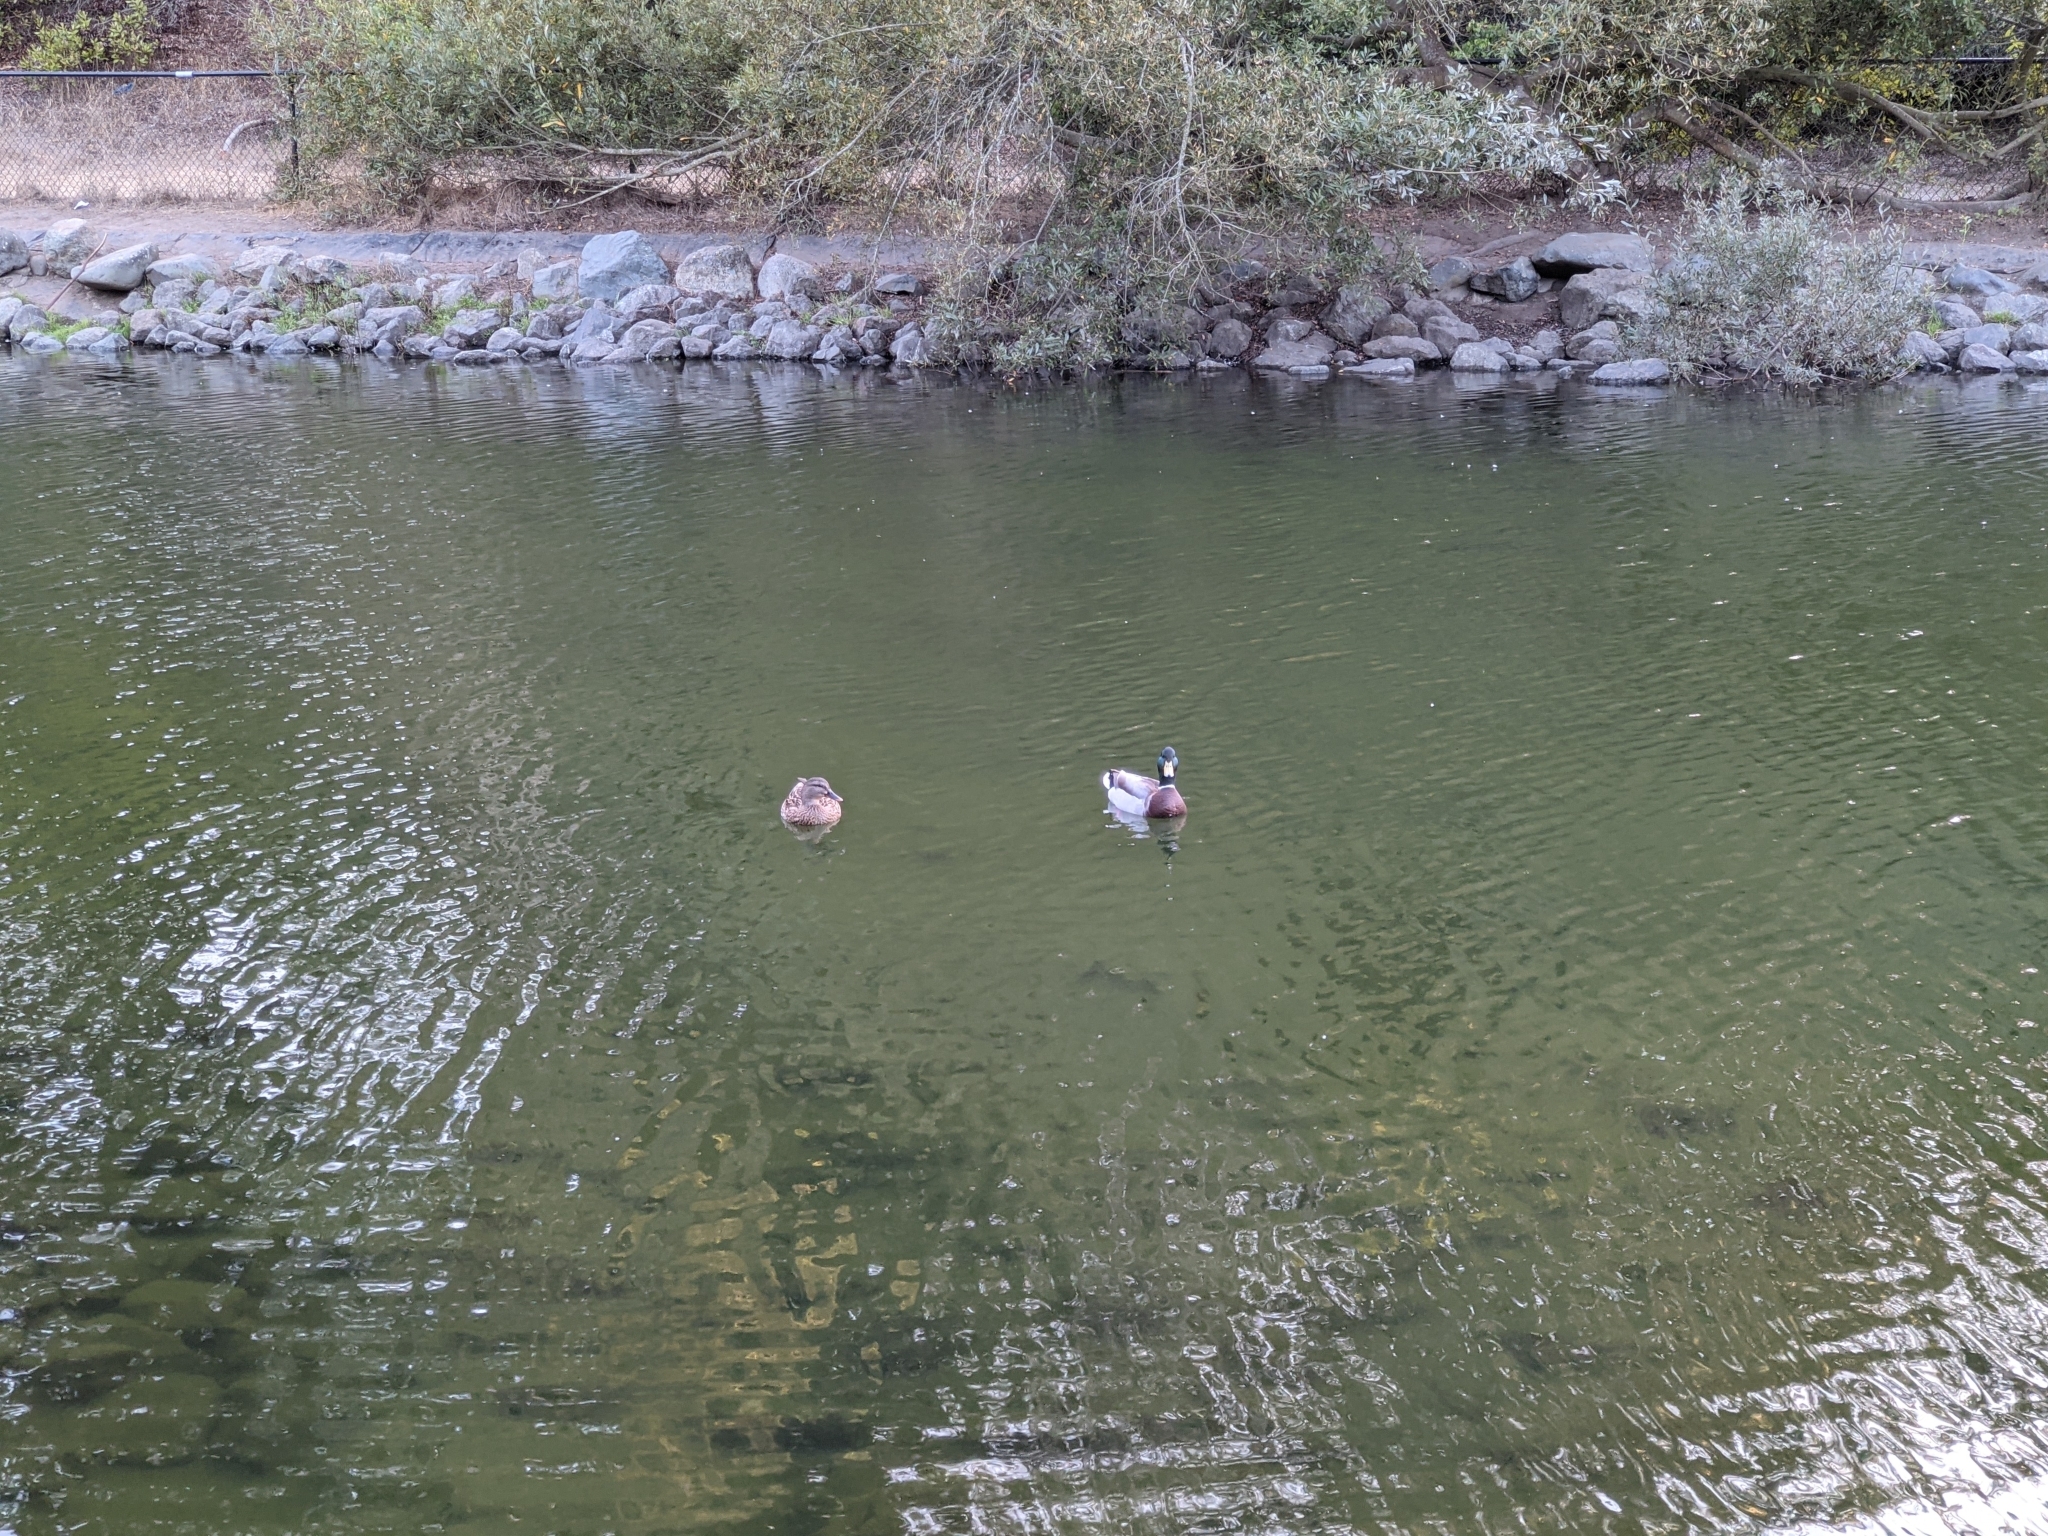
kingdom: Animalia
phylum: Chordata
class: Aves
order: Anseriformes
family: Anatidae
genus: Anas
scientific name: Anas platyrhynchos
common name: Mallard
